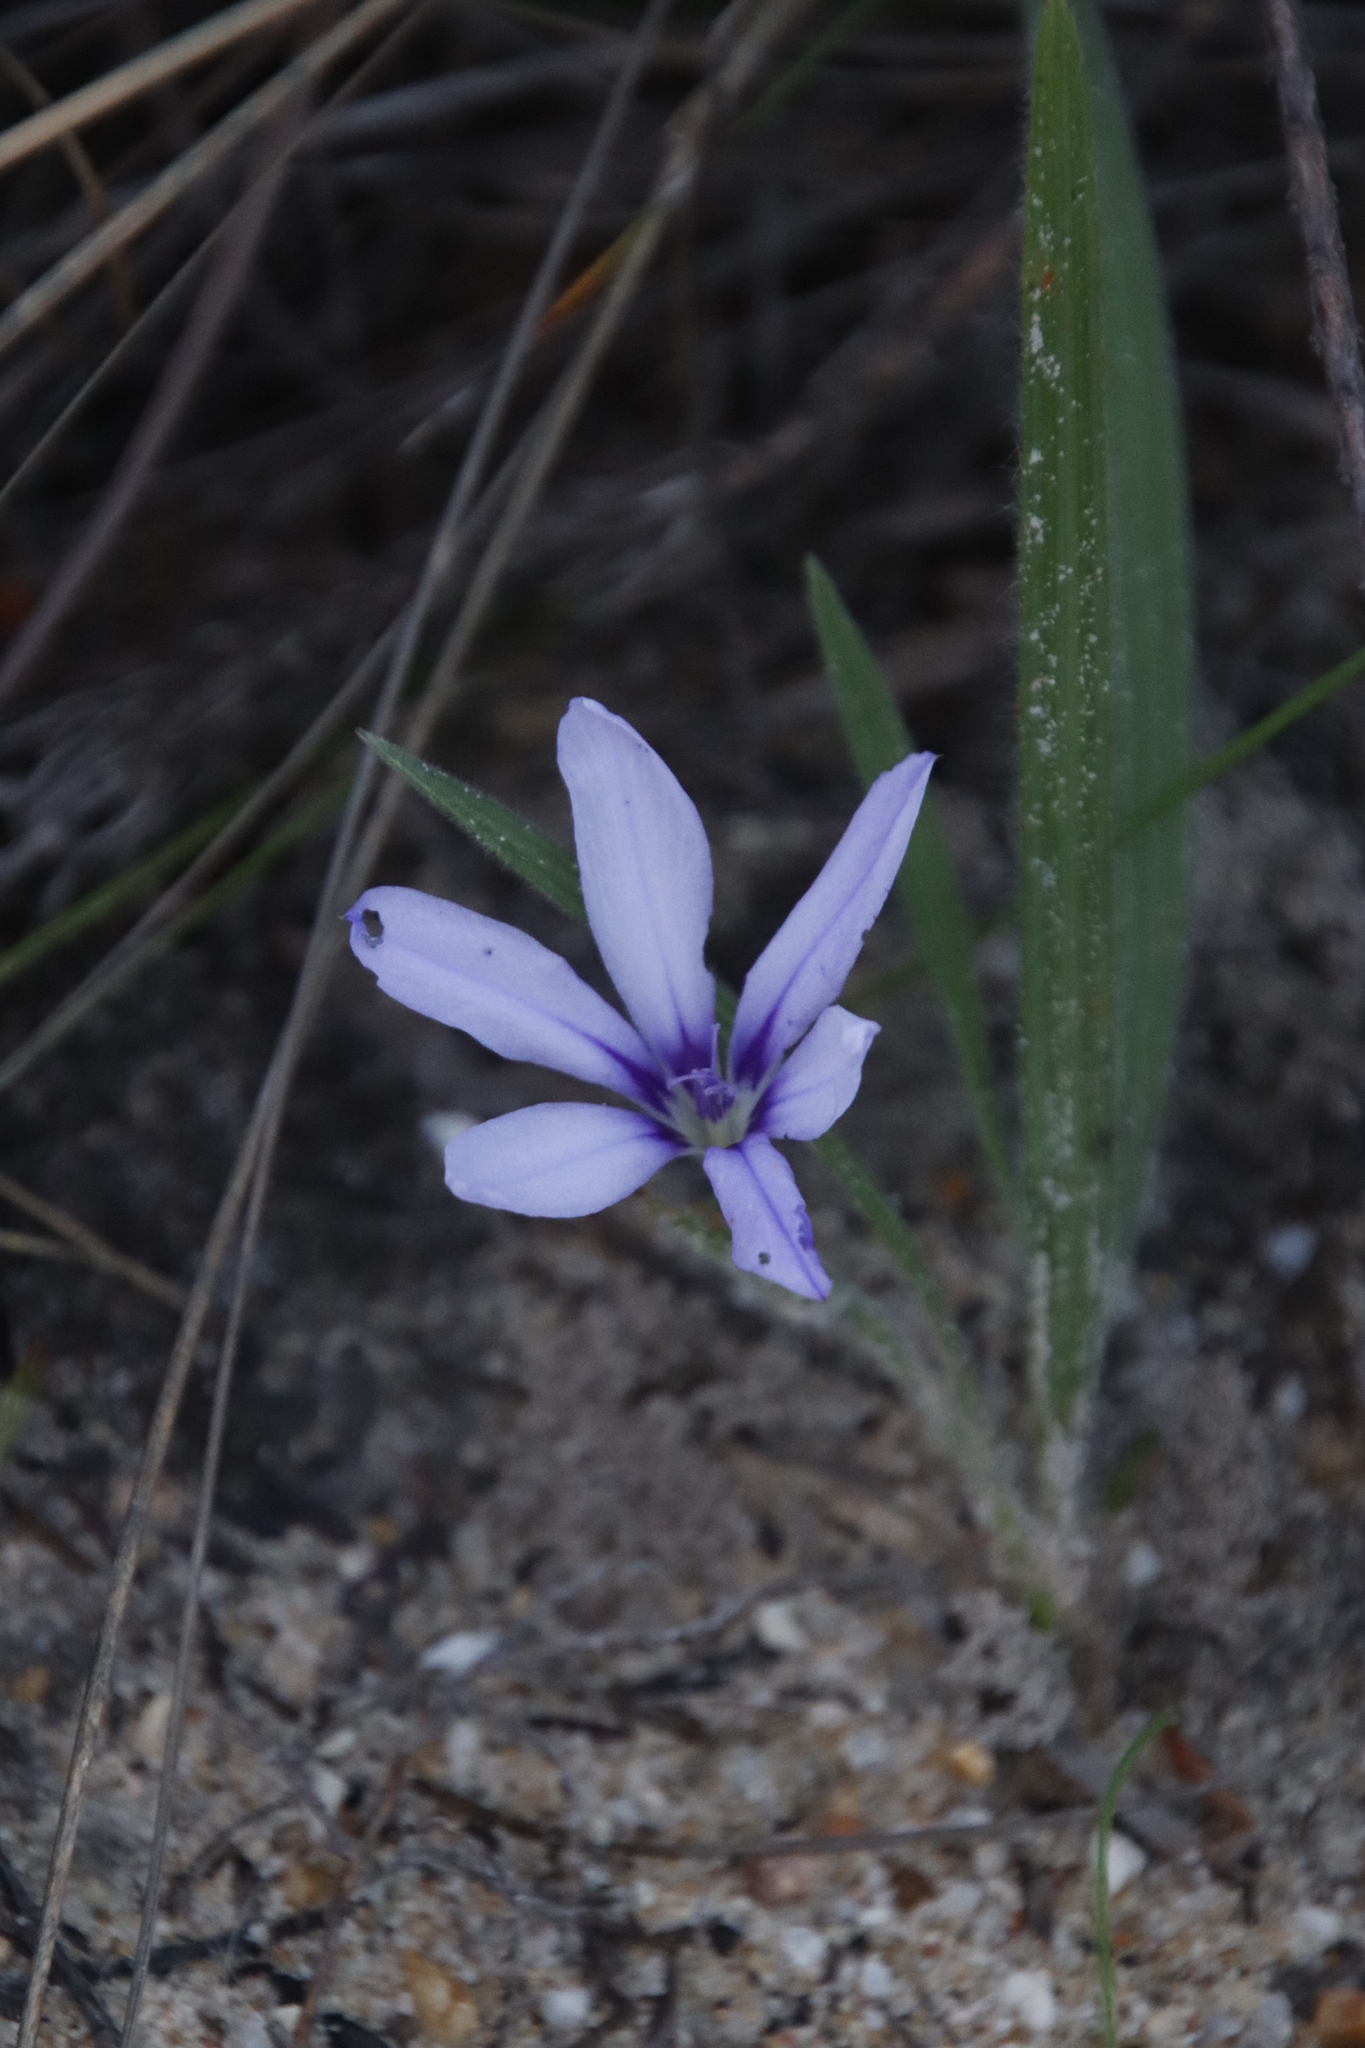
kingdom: Plantae
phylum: Tracheophyta
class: Liliopsida
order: Asparagales
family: Iridaceae
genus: Babiana
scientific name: Babiana villosula
